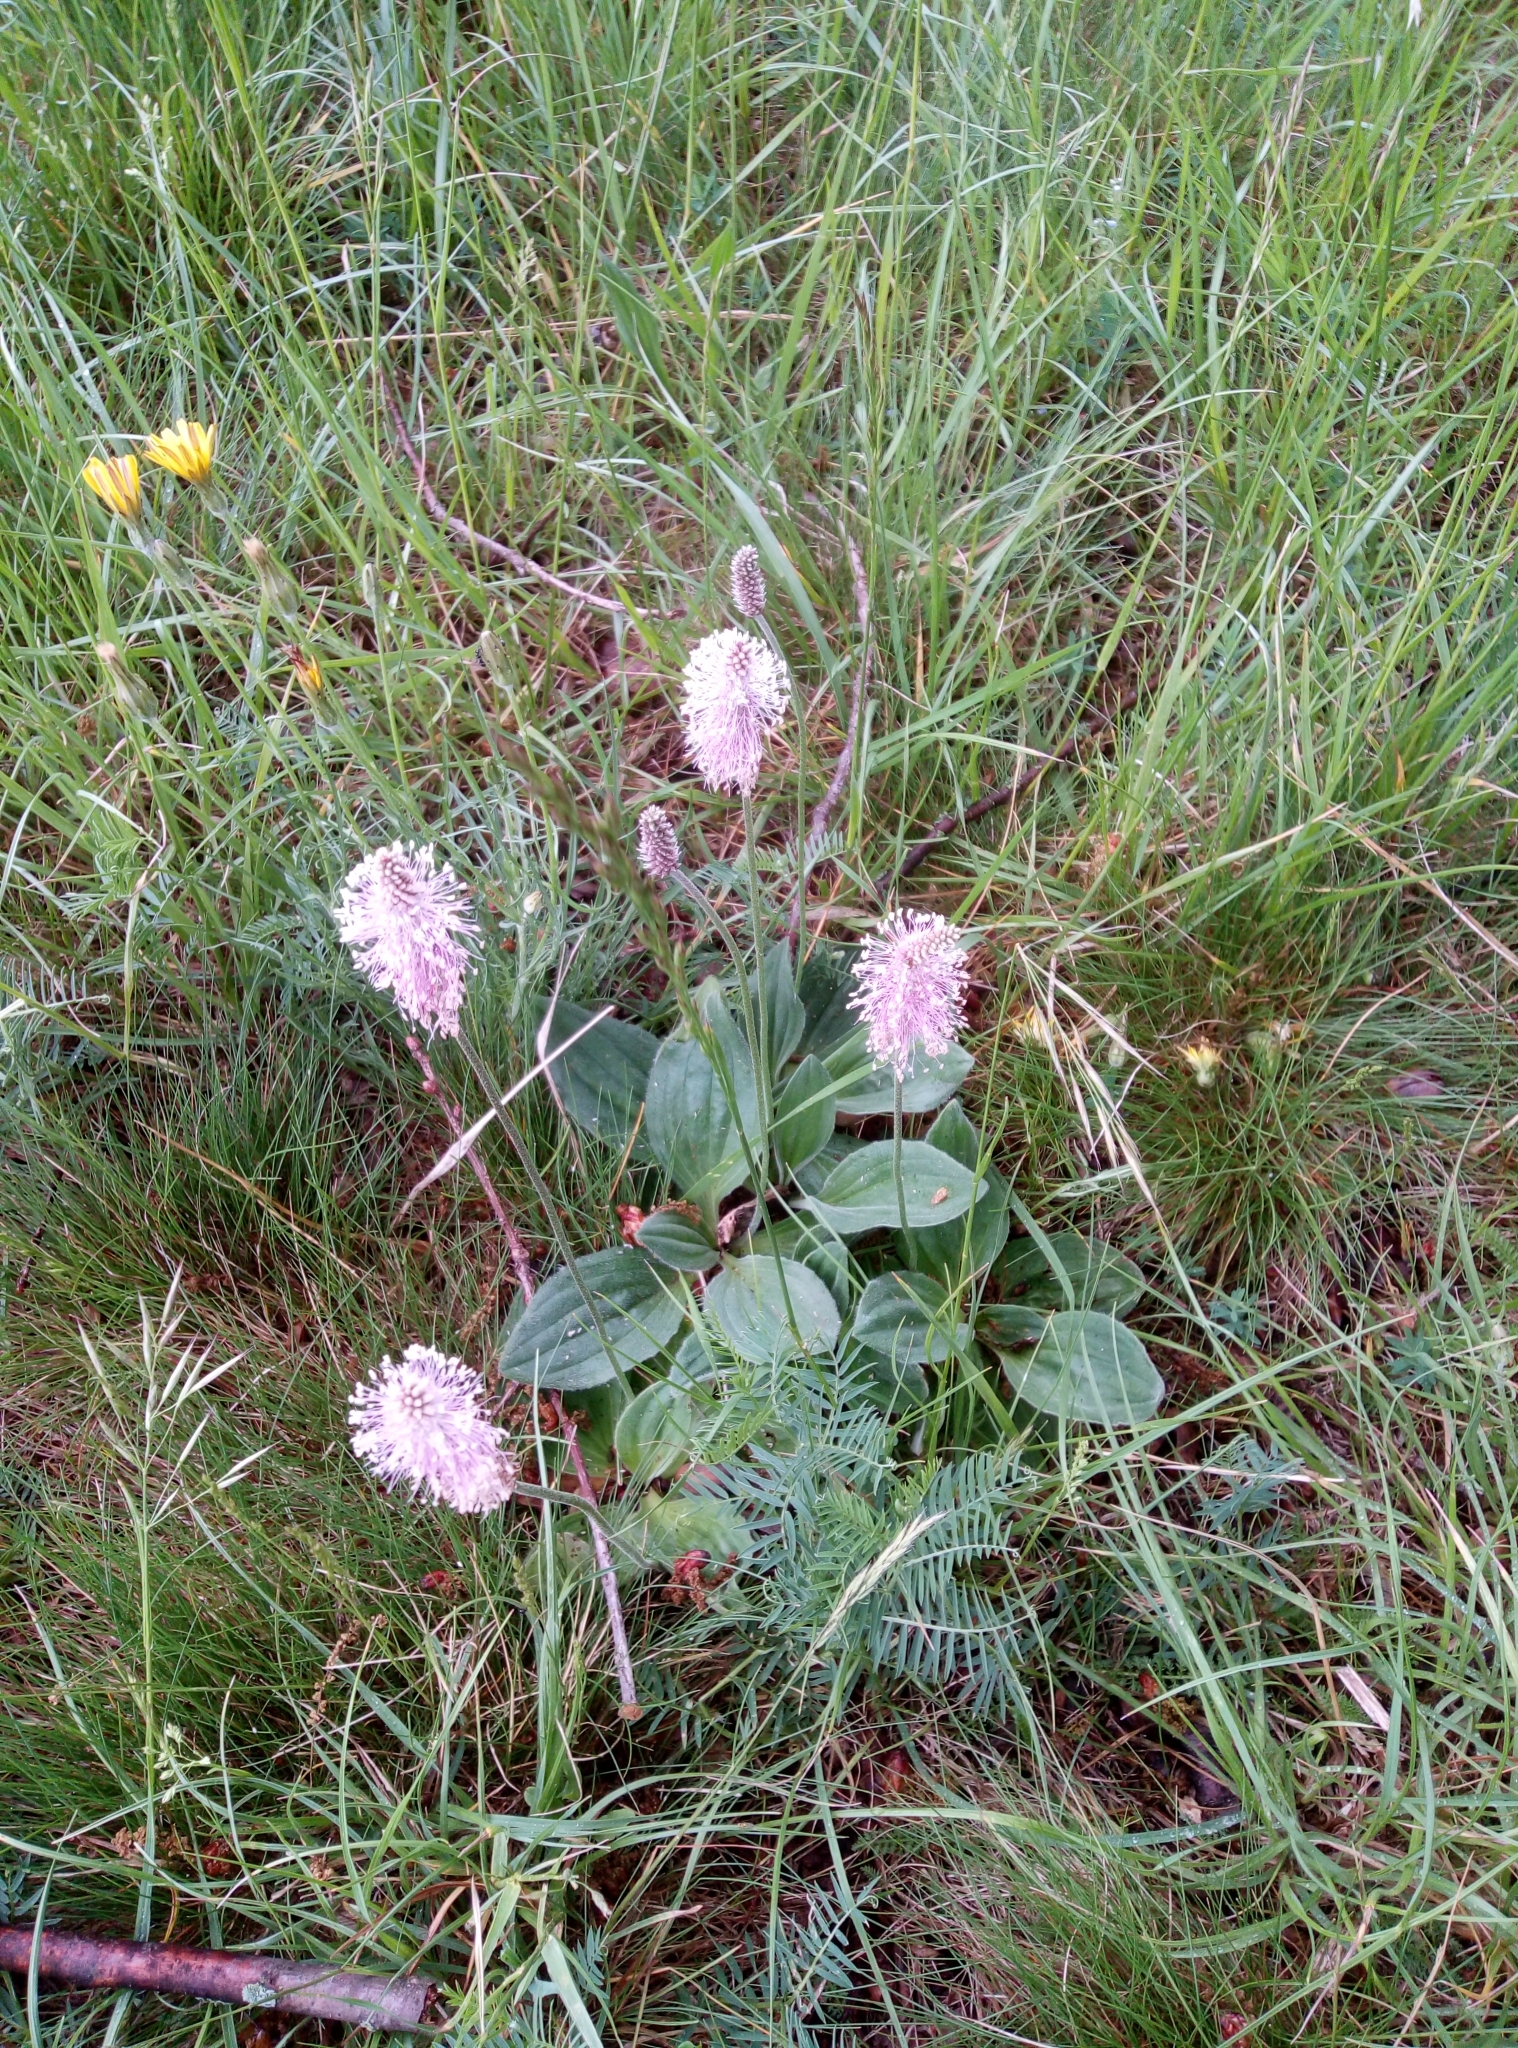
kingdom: Plantae
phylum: Tracheophyta
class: Magnoliopsida
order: Lamiales
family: Plantaginaceae
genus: Plantago
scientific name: Plantago media
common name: Hoary plantain
